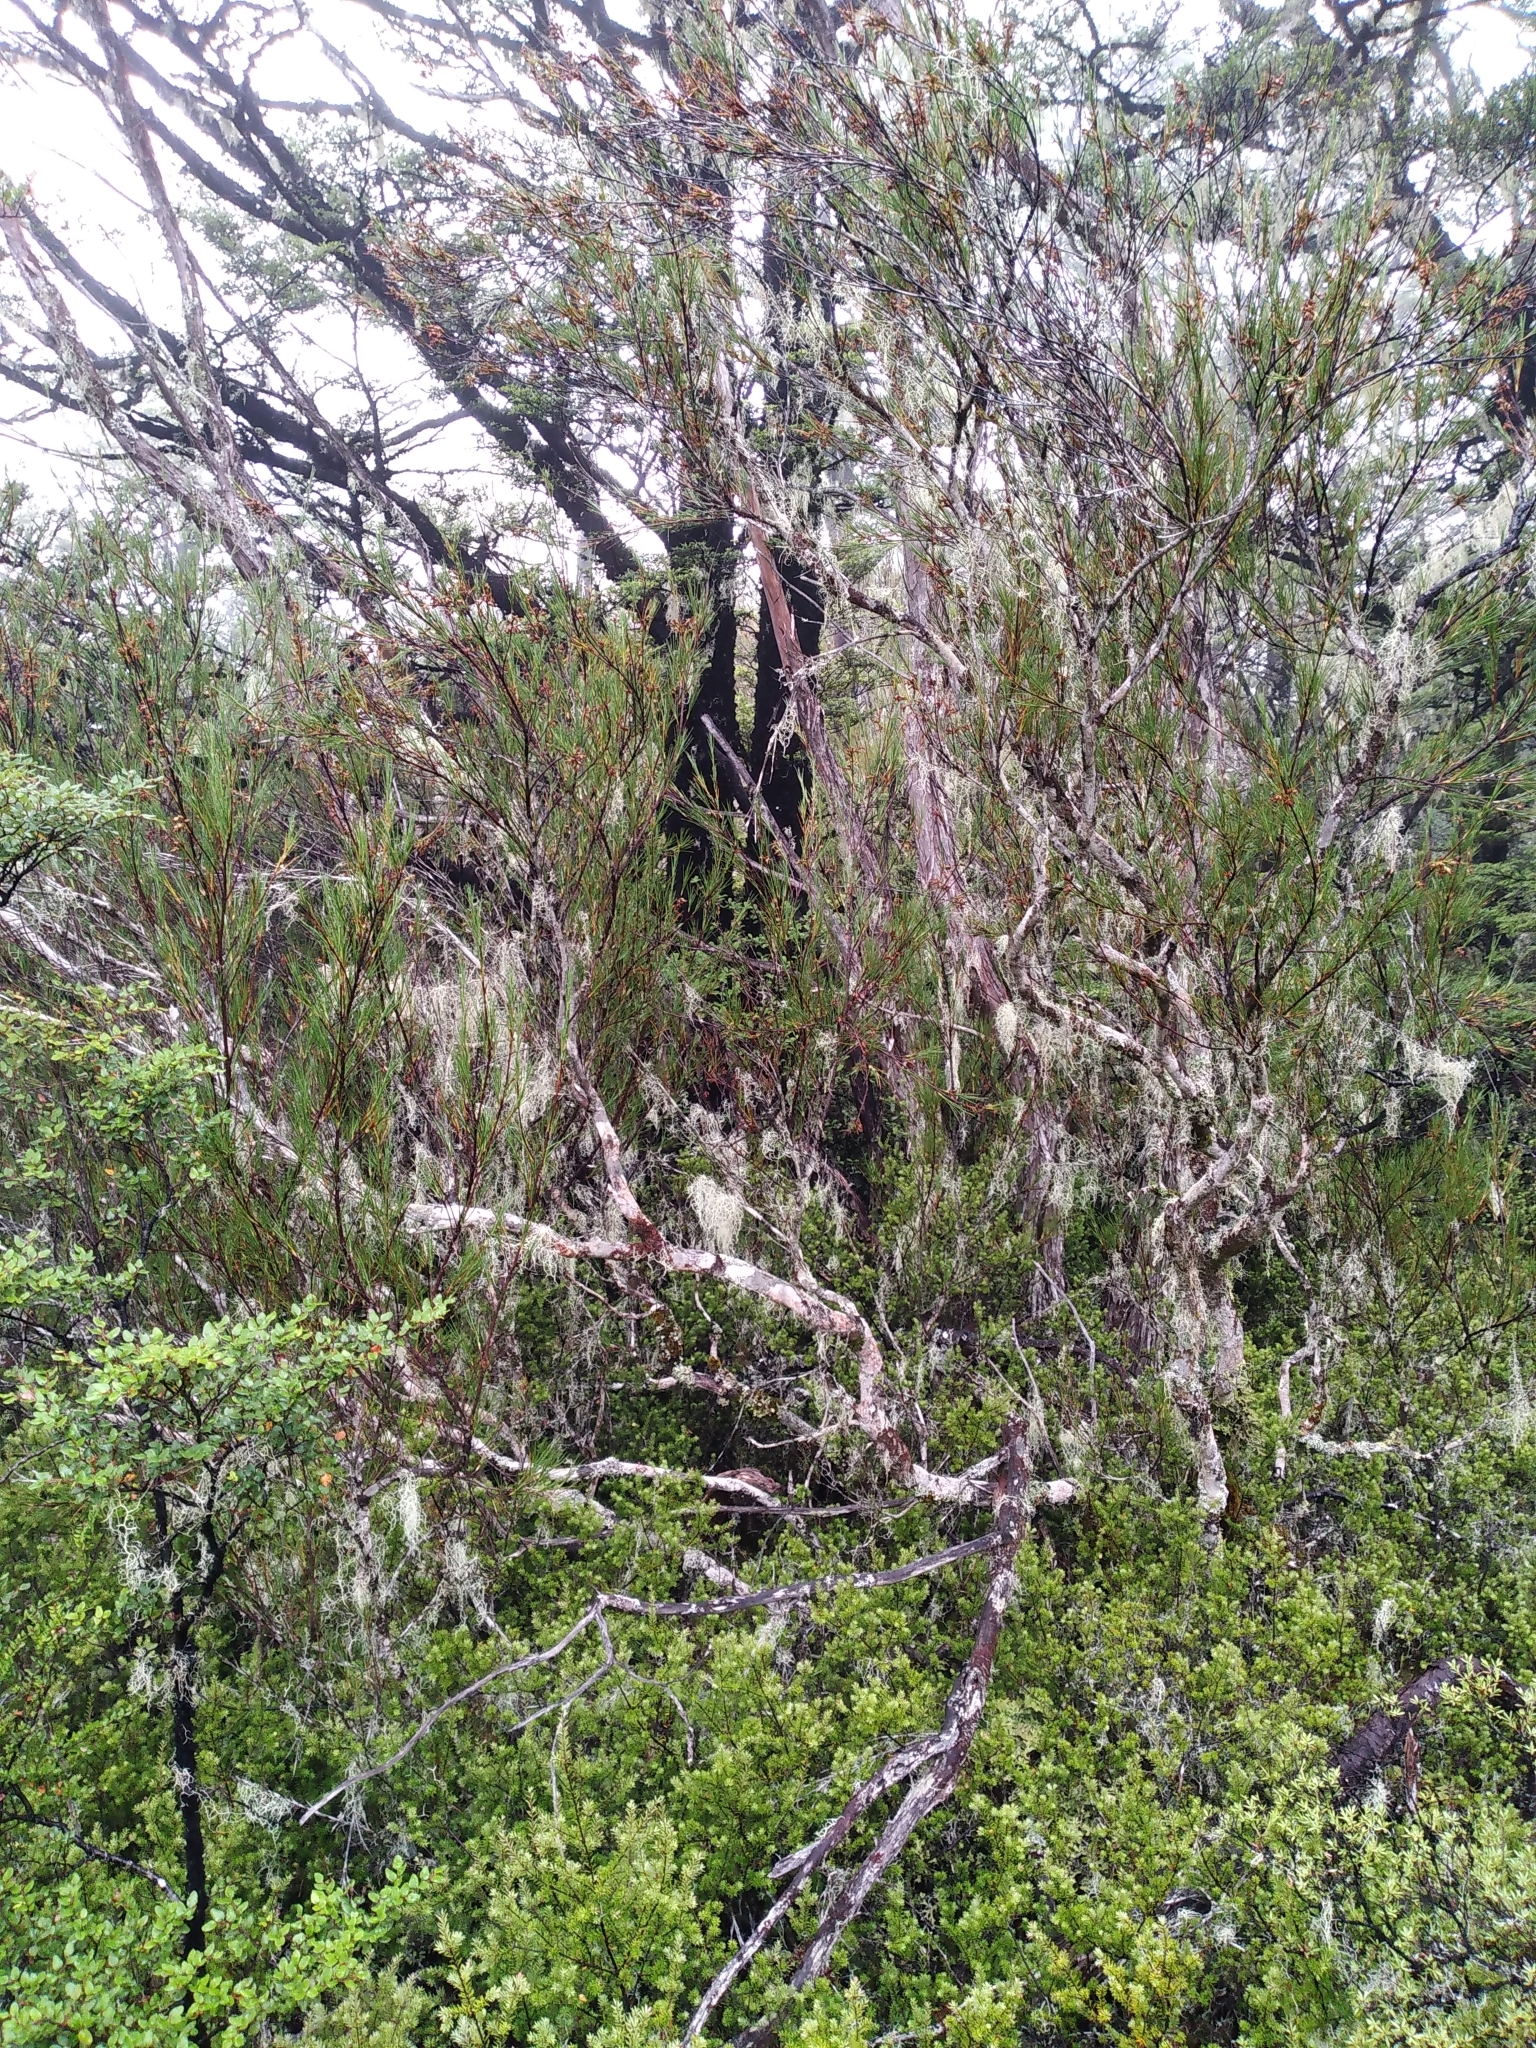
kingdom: Plantae
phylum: Tracheophyta
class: Magnoliopsida
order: Ericales
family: Ericaceae
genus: Dracophyllum
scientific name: Dracophyllum longifolium
